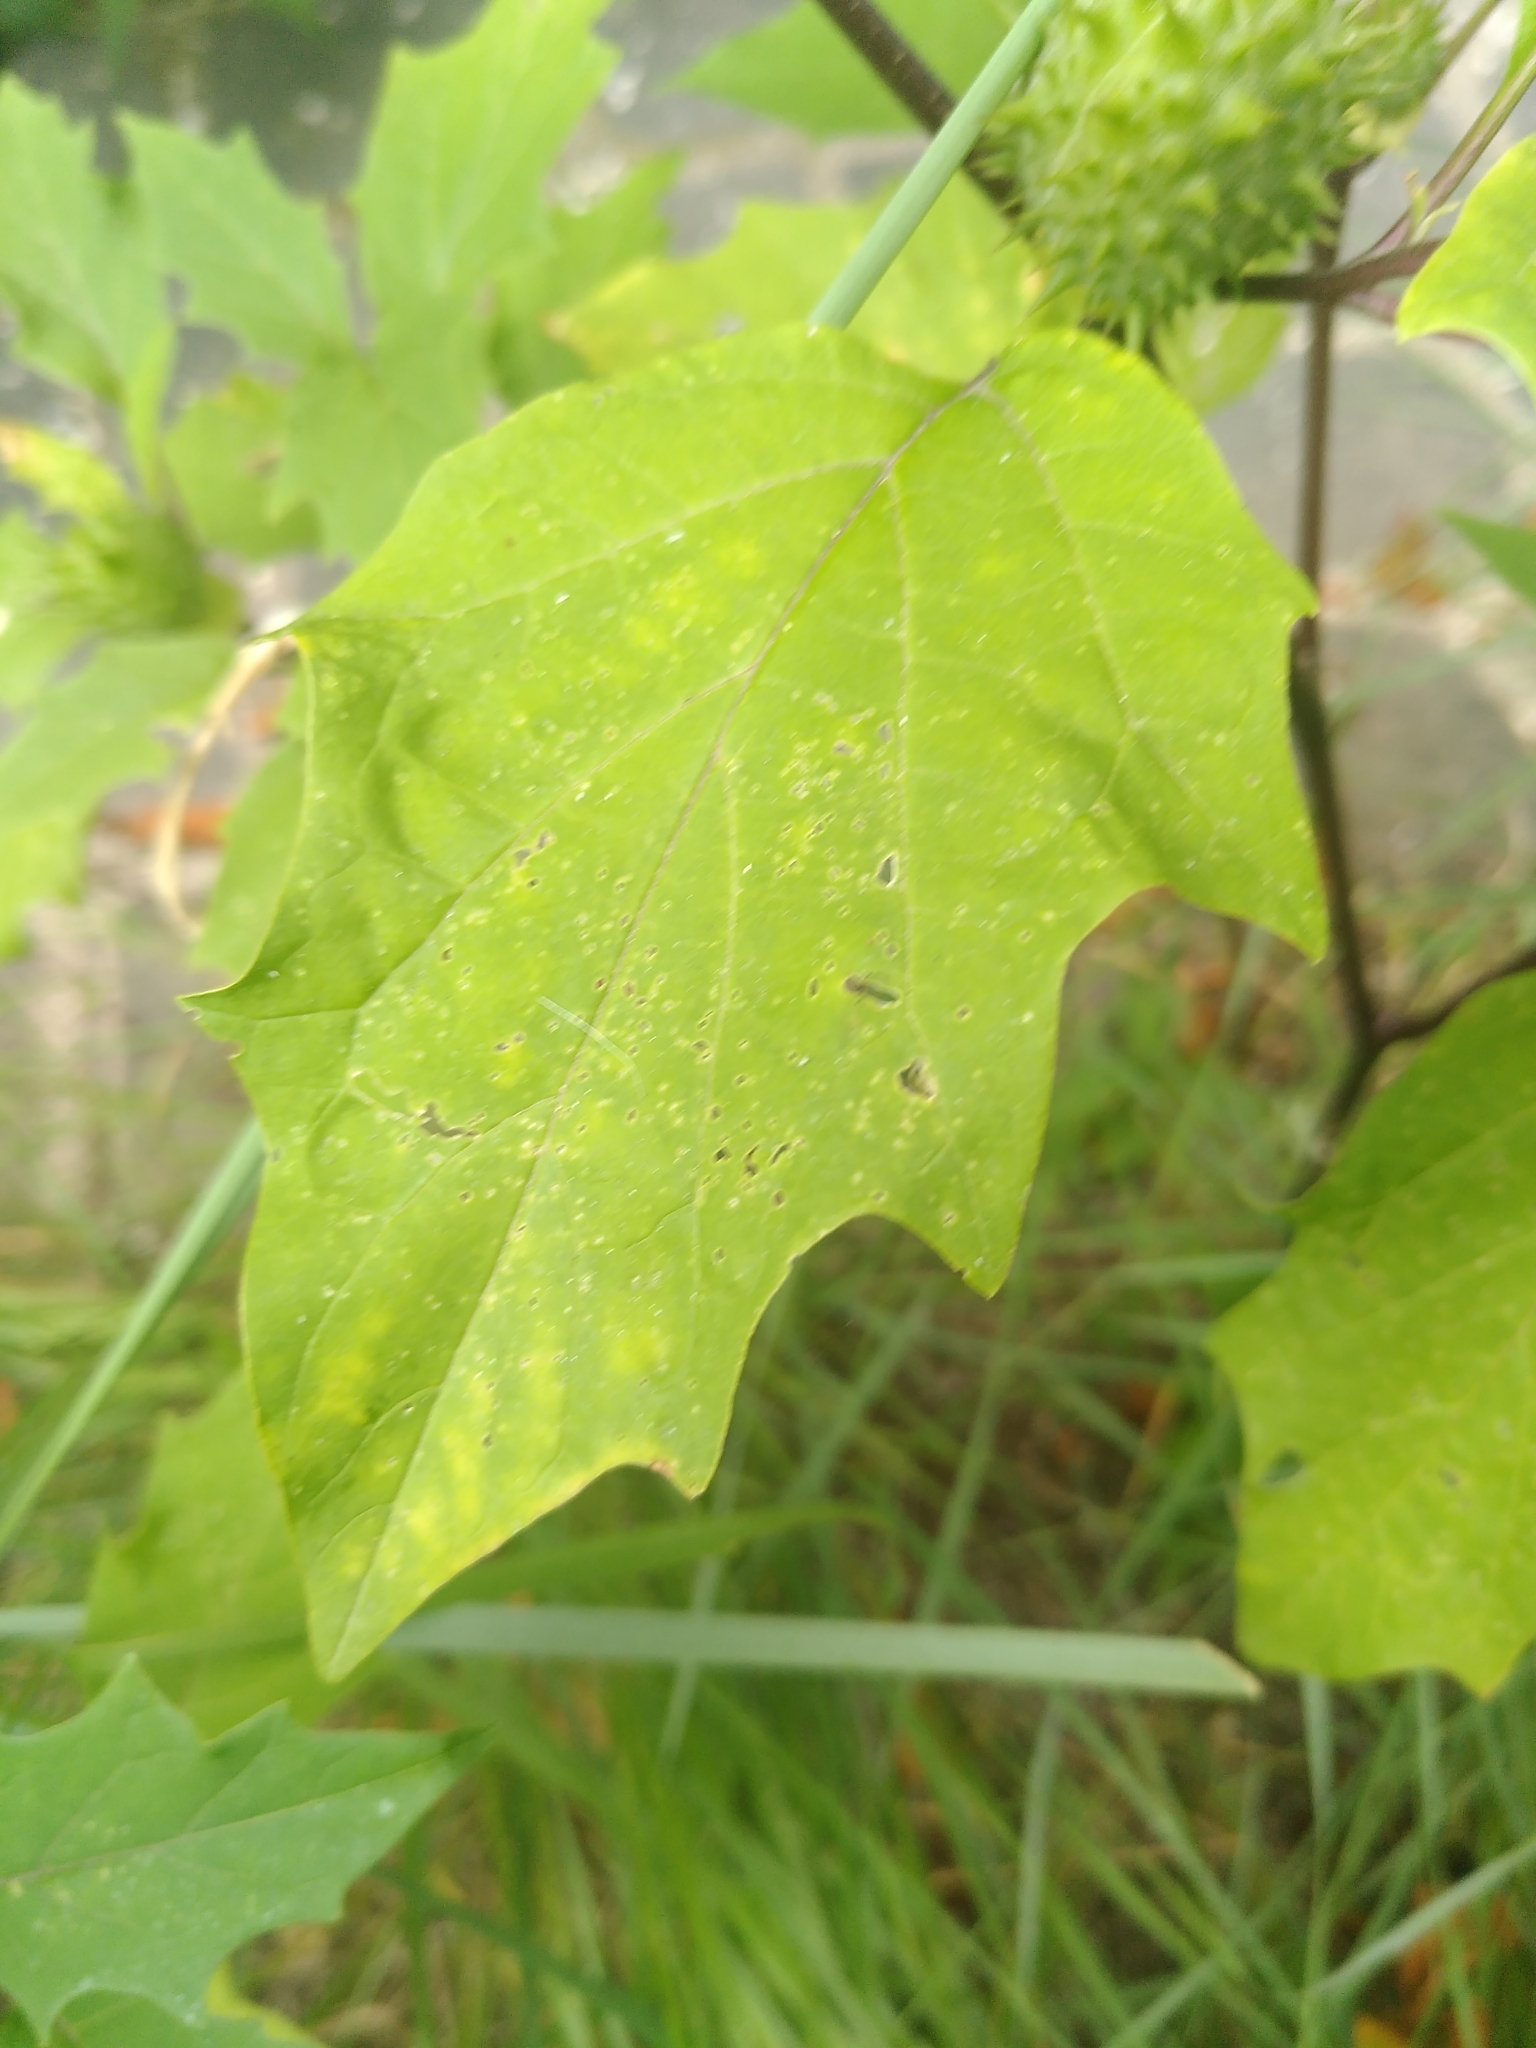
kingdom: Plantae
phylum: Tracheophyta
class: Magnoliopsida
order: Solanales
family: Solanaceae
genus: Datura
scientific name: Datura stramonium
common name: Thorn-apple
